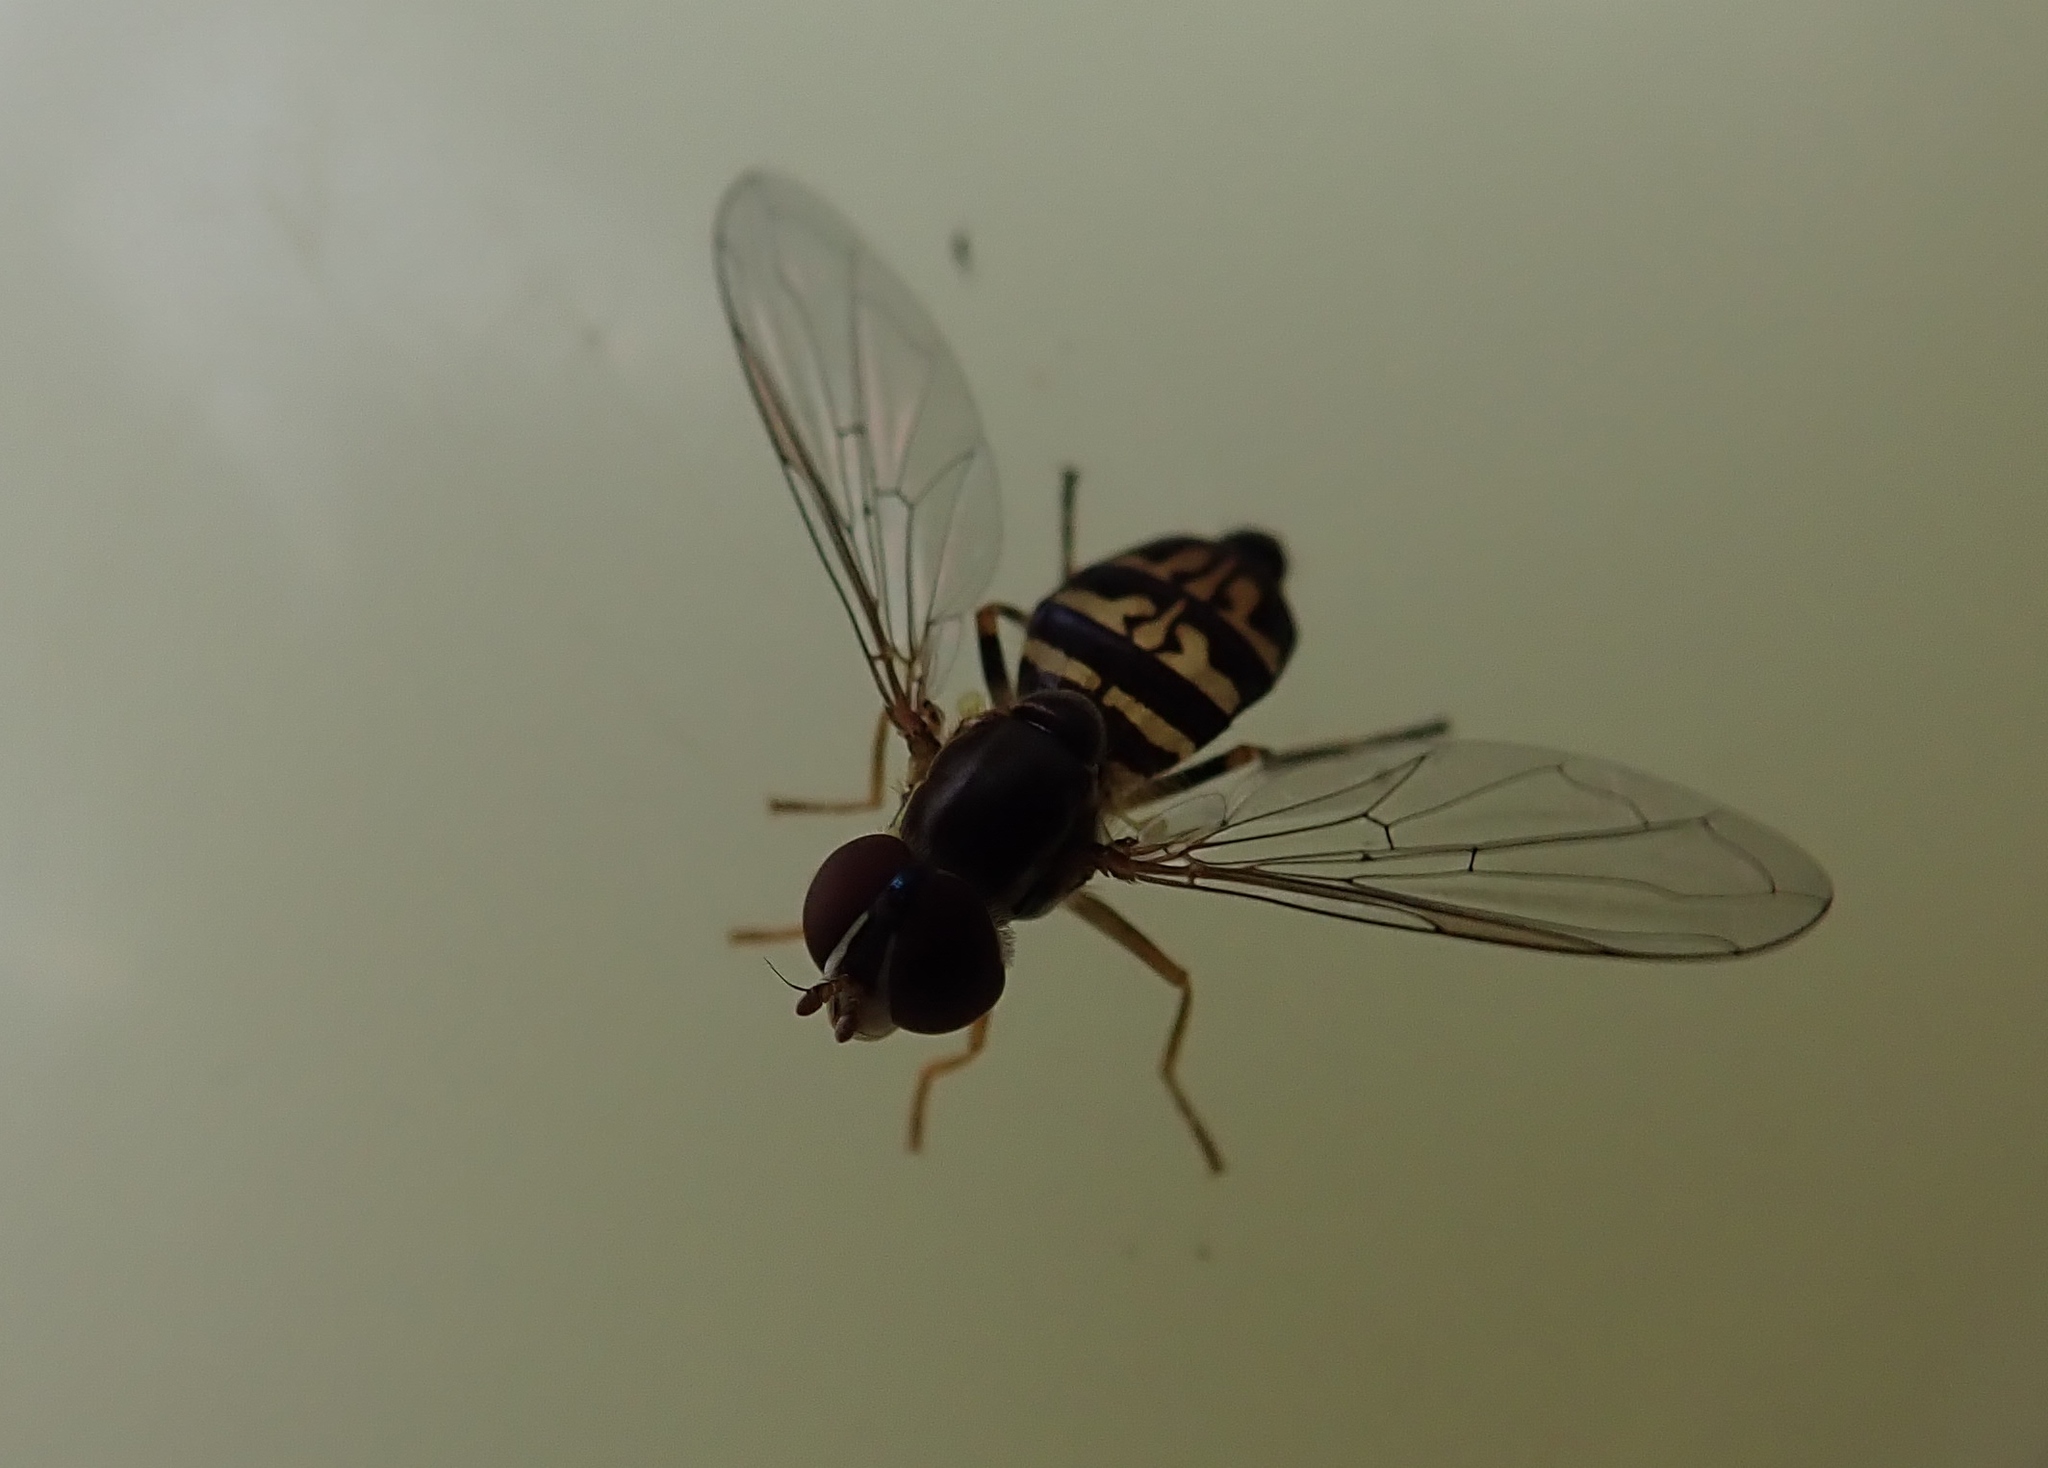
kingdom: Animalia
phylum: Arthropoda
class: Insecta
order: Diptera
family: Syrphidae
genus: Toxomerus
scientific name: Toxomerus geminatus
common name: Eastern calligrapher
